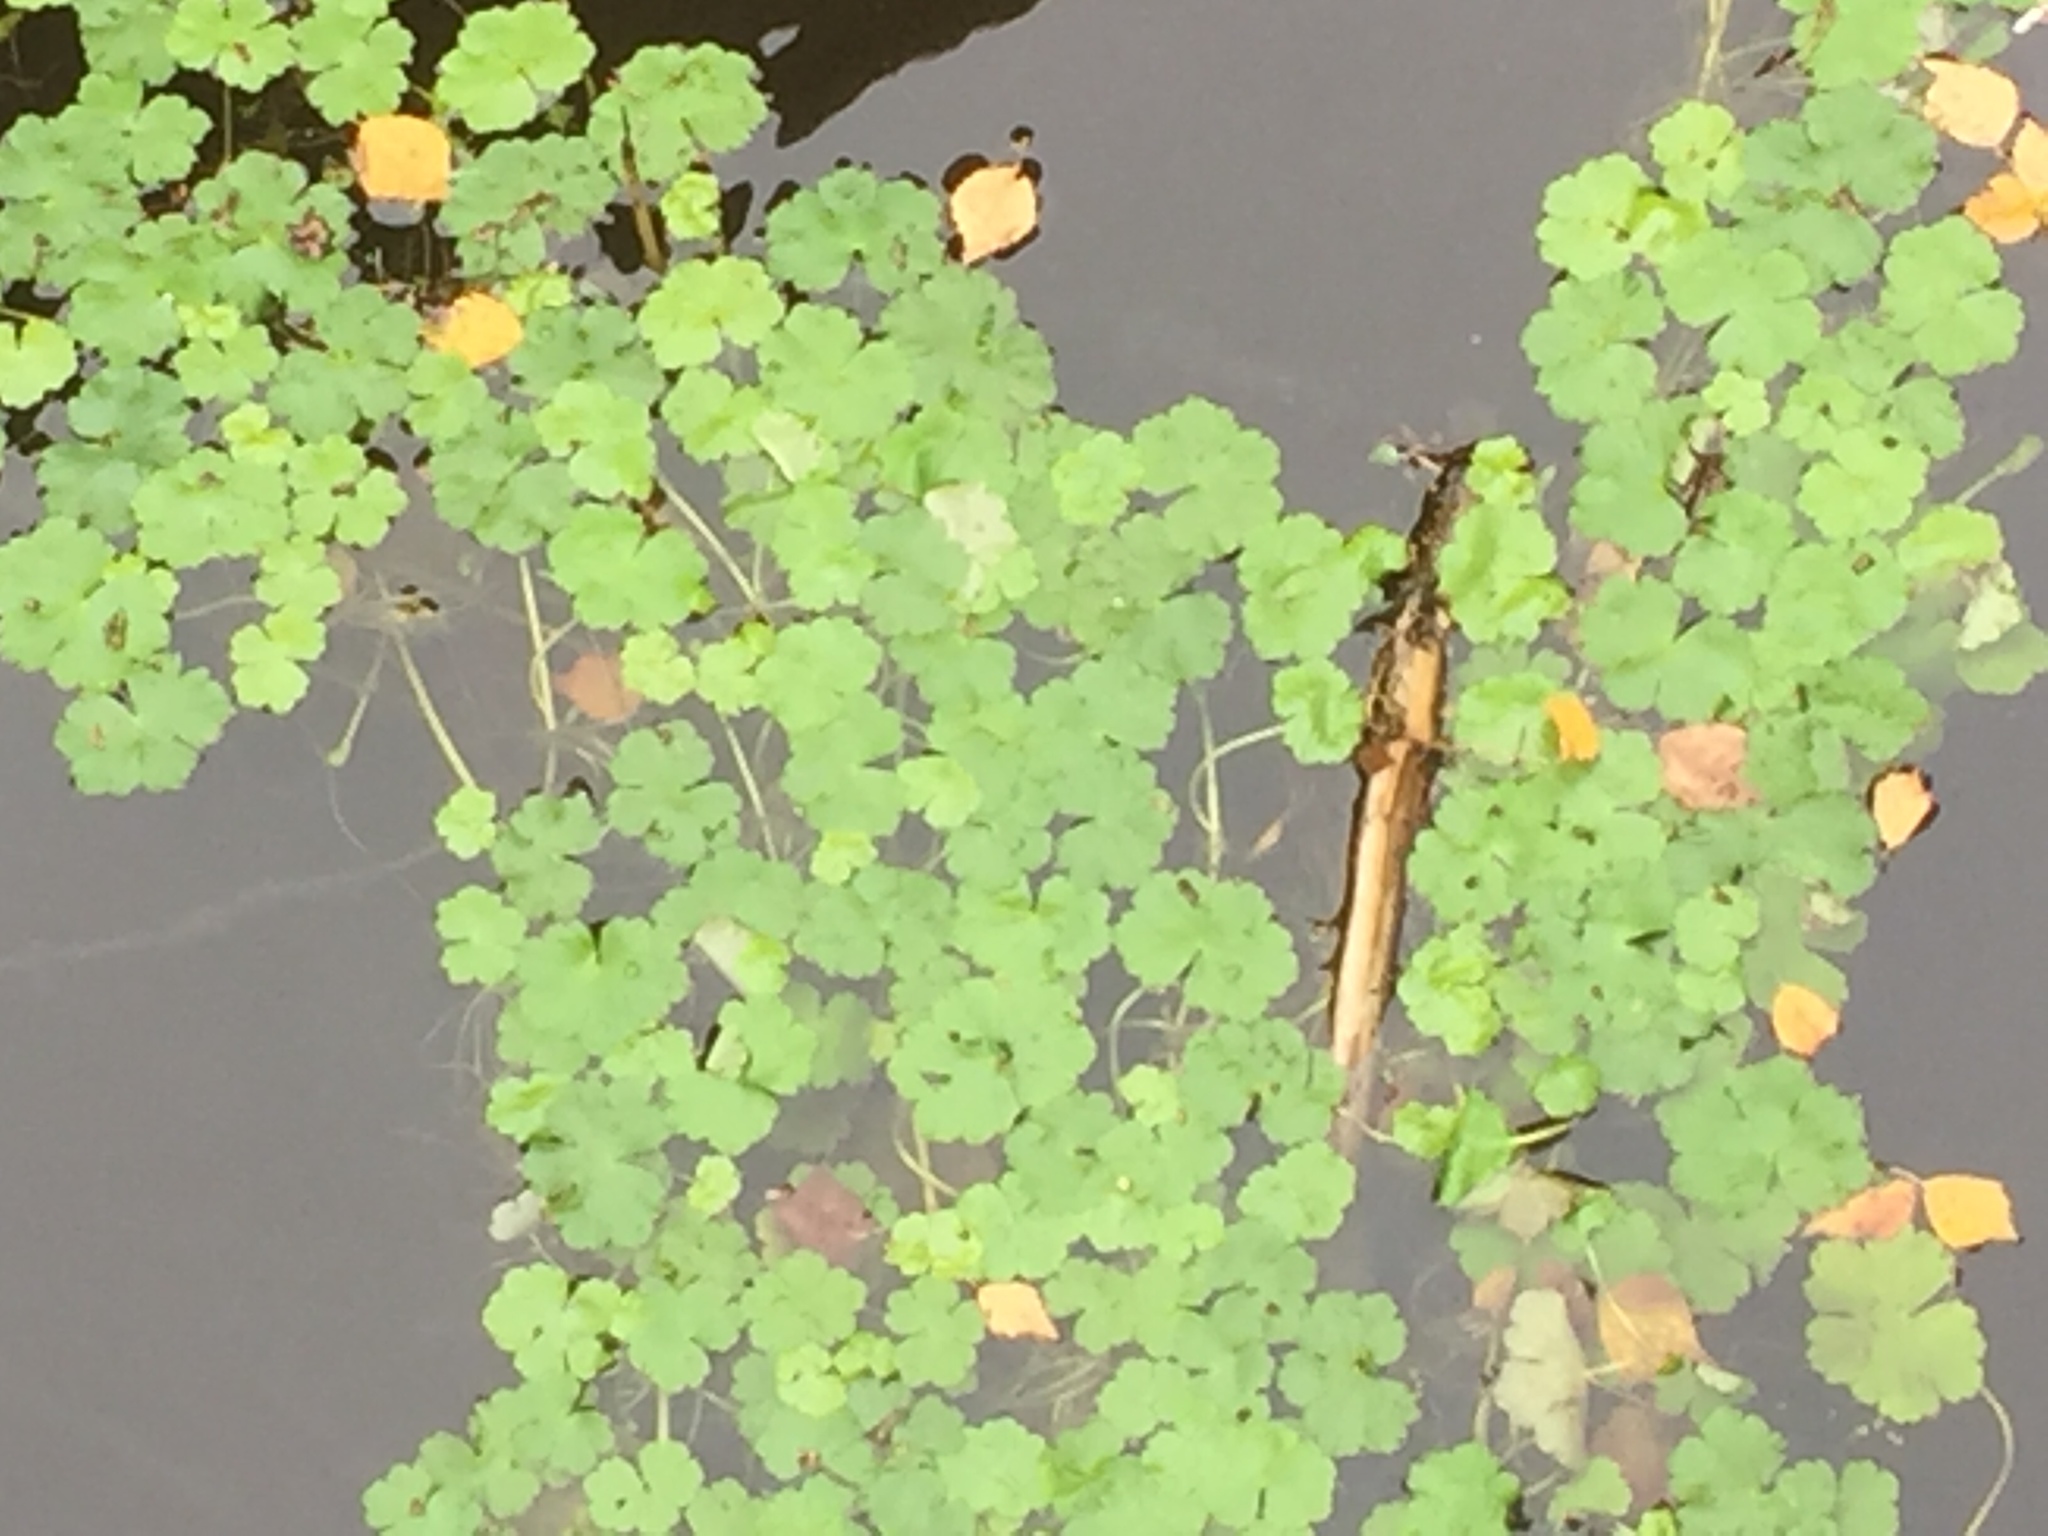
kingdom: Plantae
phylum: Tracheophyta
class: Magnoliopsida
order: Apiales
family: Araliaceae
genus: Hydrocotyle
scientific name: Hydrocotyle ranunculoides
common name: Floating pennywort
